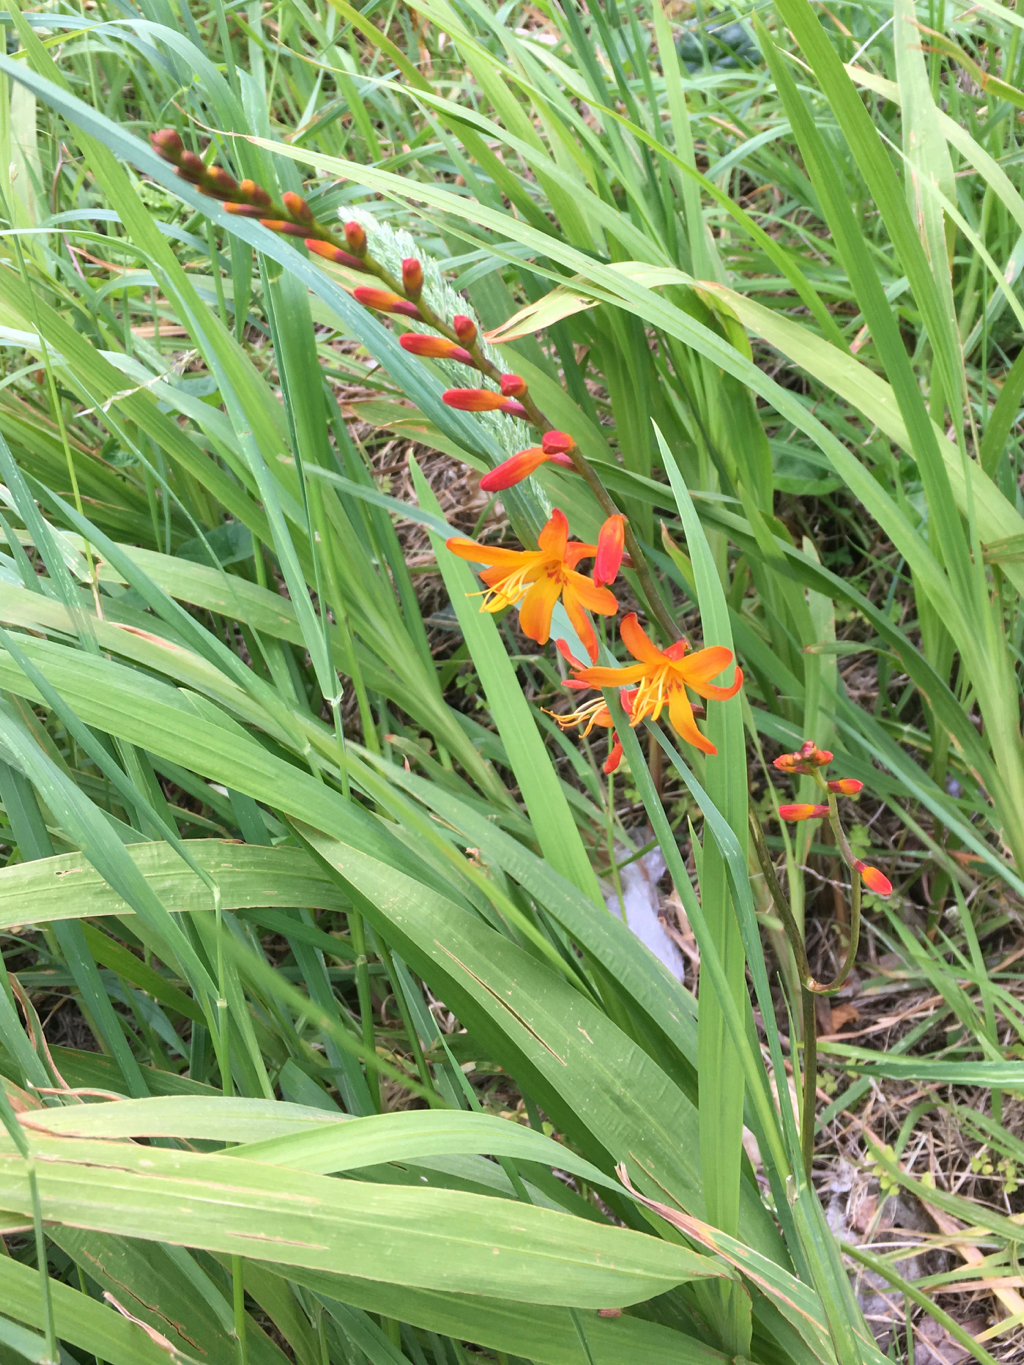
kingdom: Plantae
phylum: Tracheophyta
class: Liliopsida
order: Asparagales
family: Iridaceae
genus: Crocosmia
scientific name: Crocosmia crocosmiiflora
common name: Montbretia
